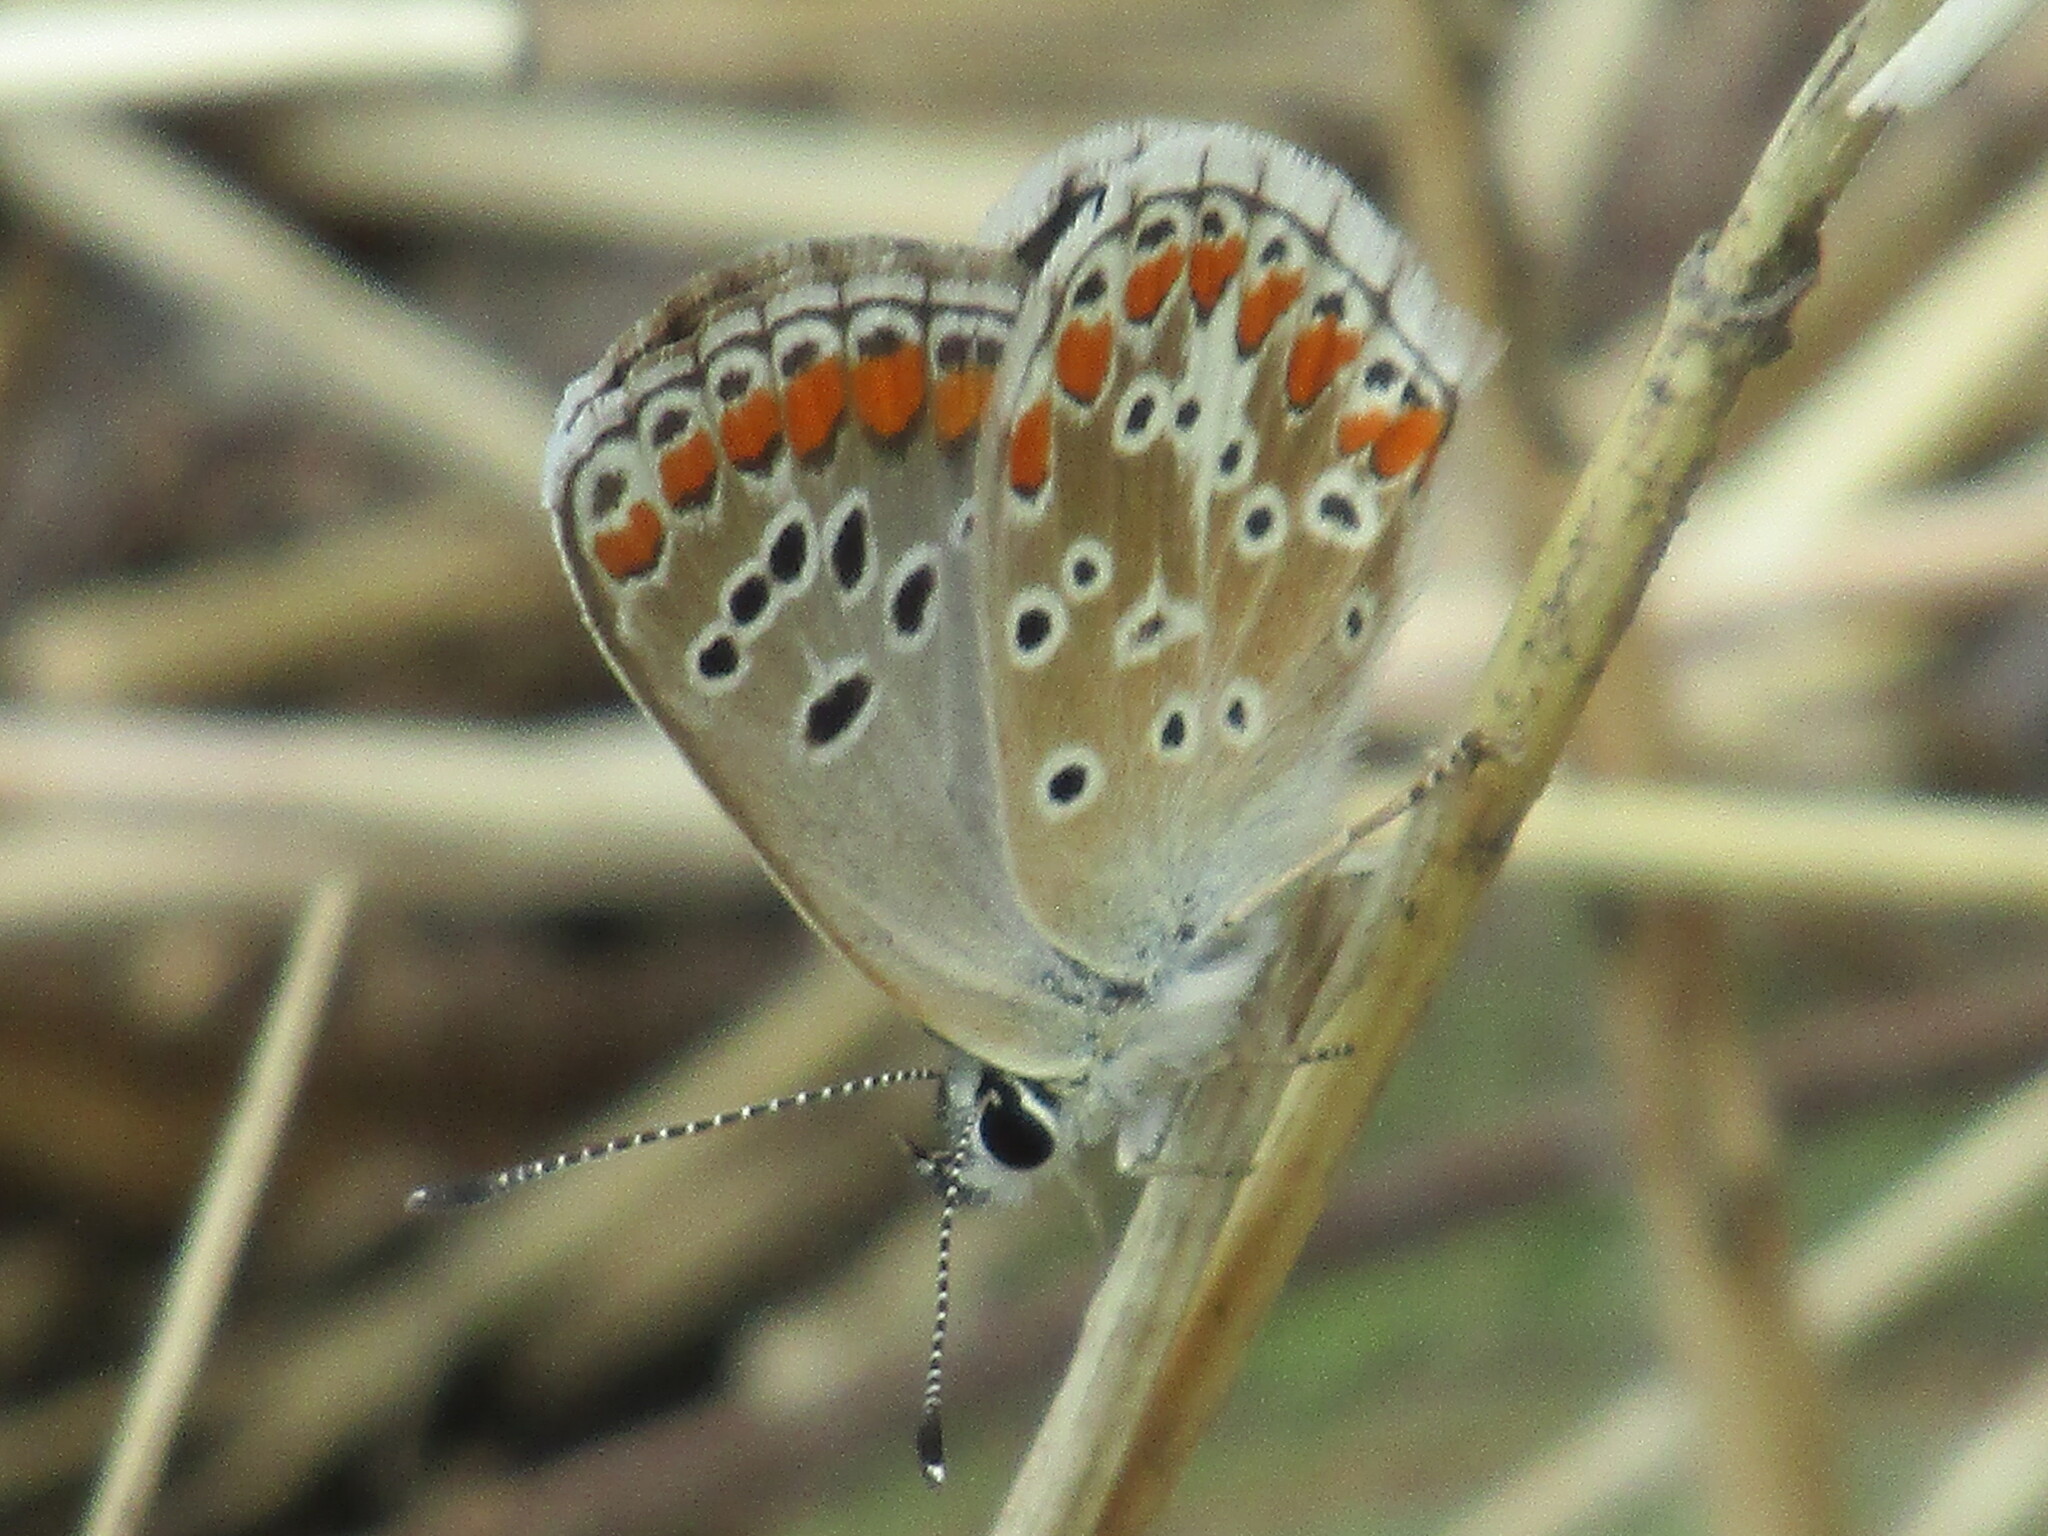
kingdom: Animalia
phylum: Arthropoda
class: Insecta
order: Lepidoptera
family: Lycaenidae
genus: Aricia
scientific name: Aricia agestis
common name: Brown argus
